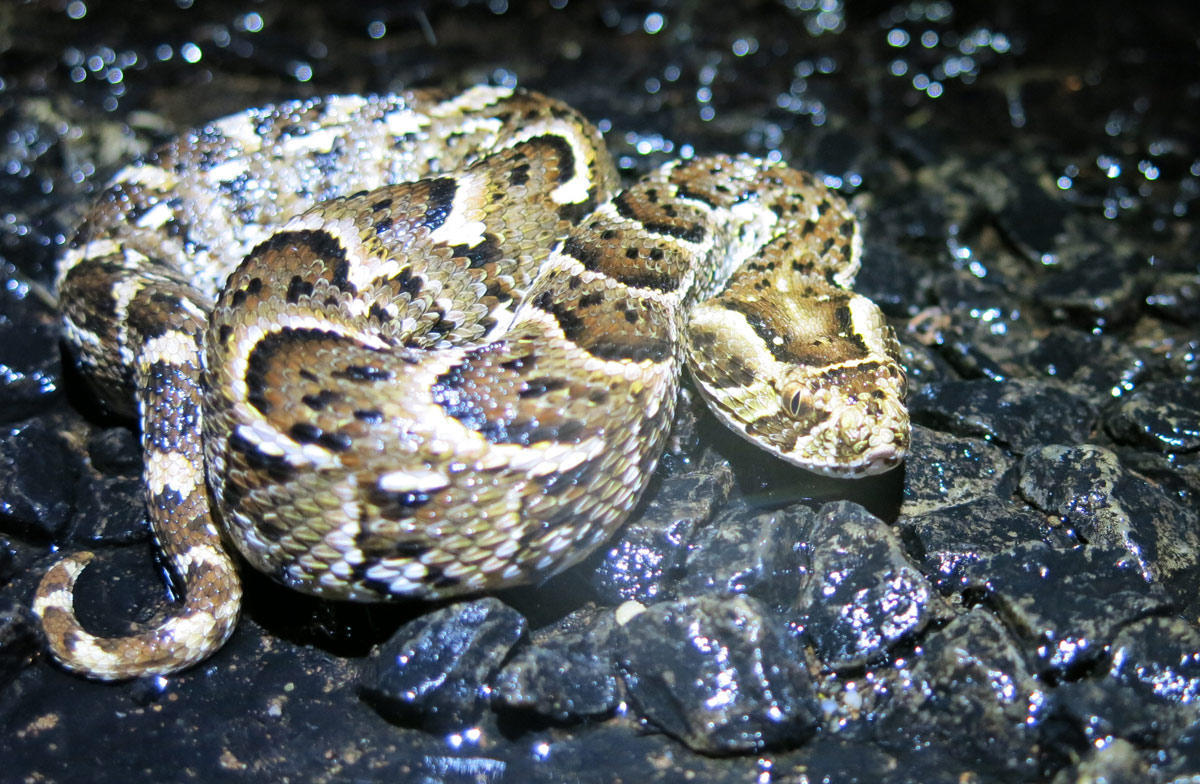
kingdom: Animalia
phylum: Chordata
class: Squamata
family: Viperidae
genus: Bitis
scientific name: Bitis arietans
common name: Puff adder
